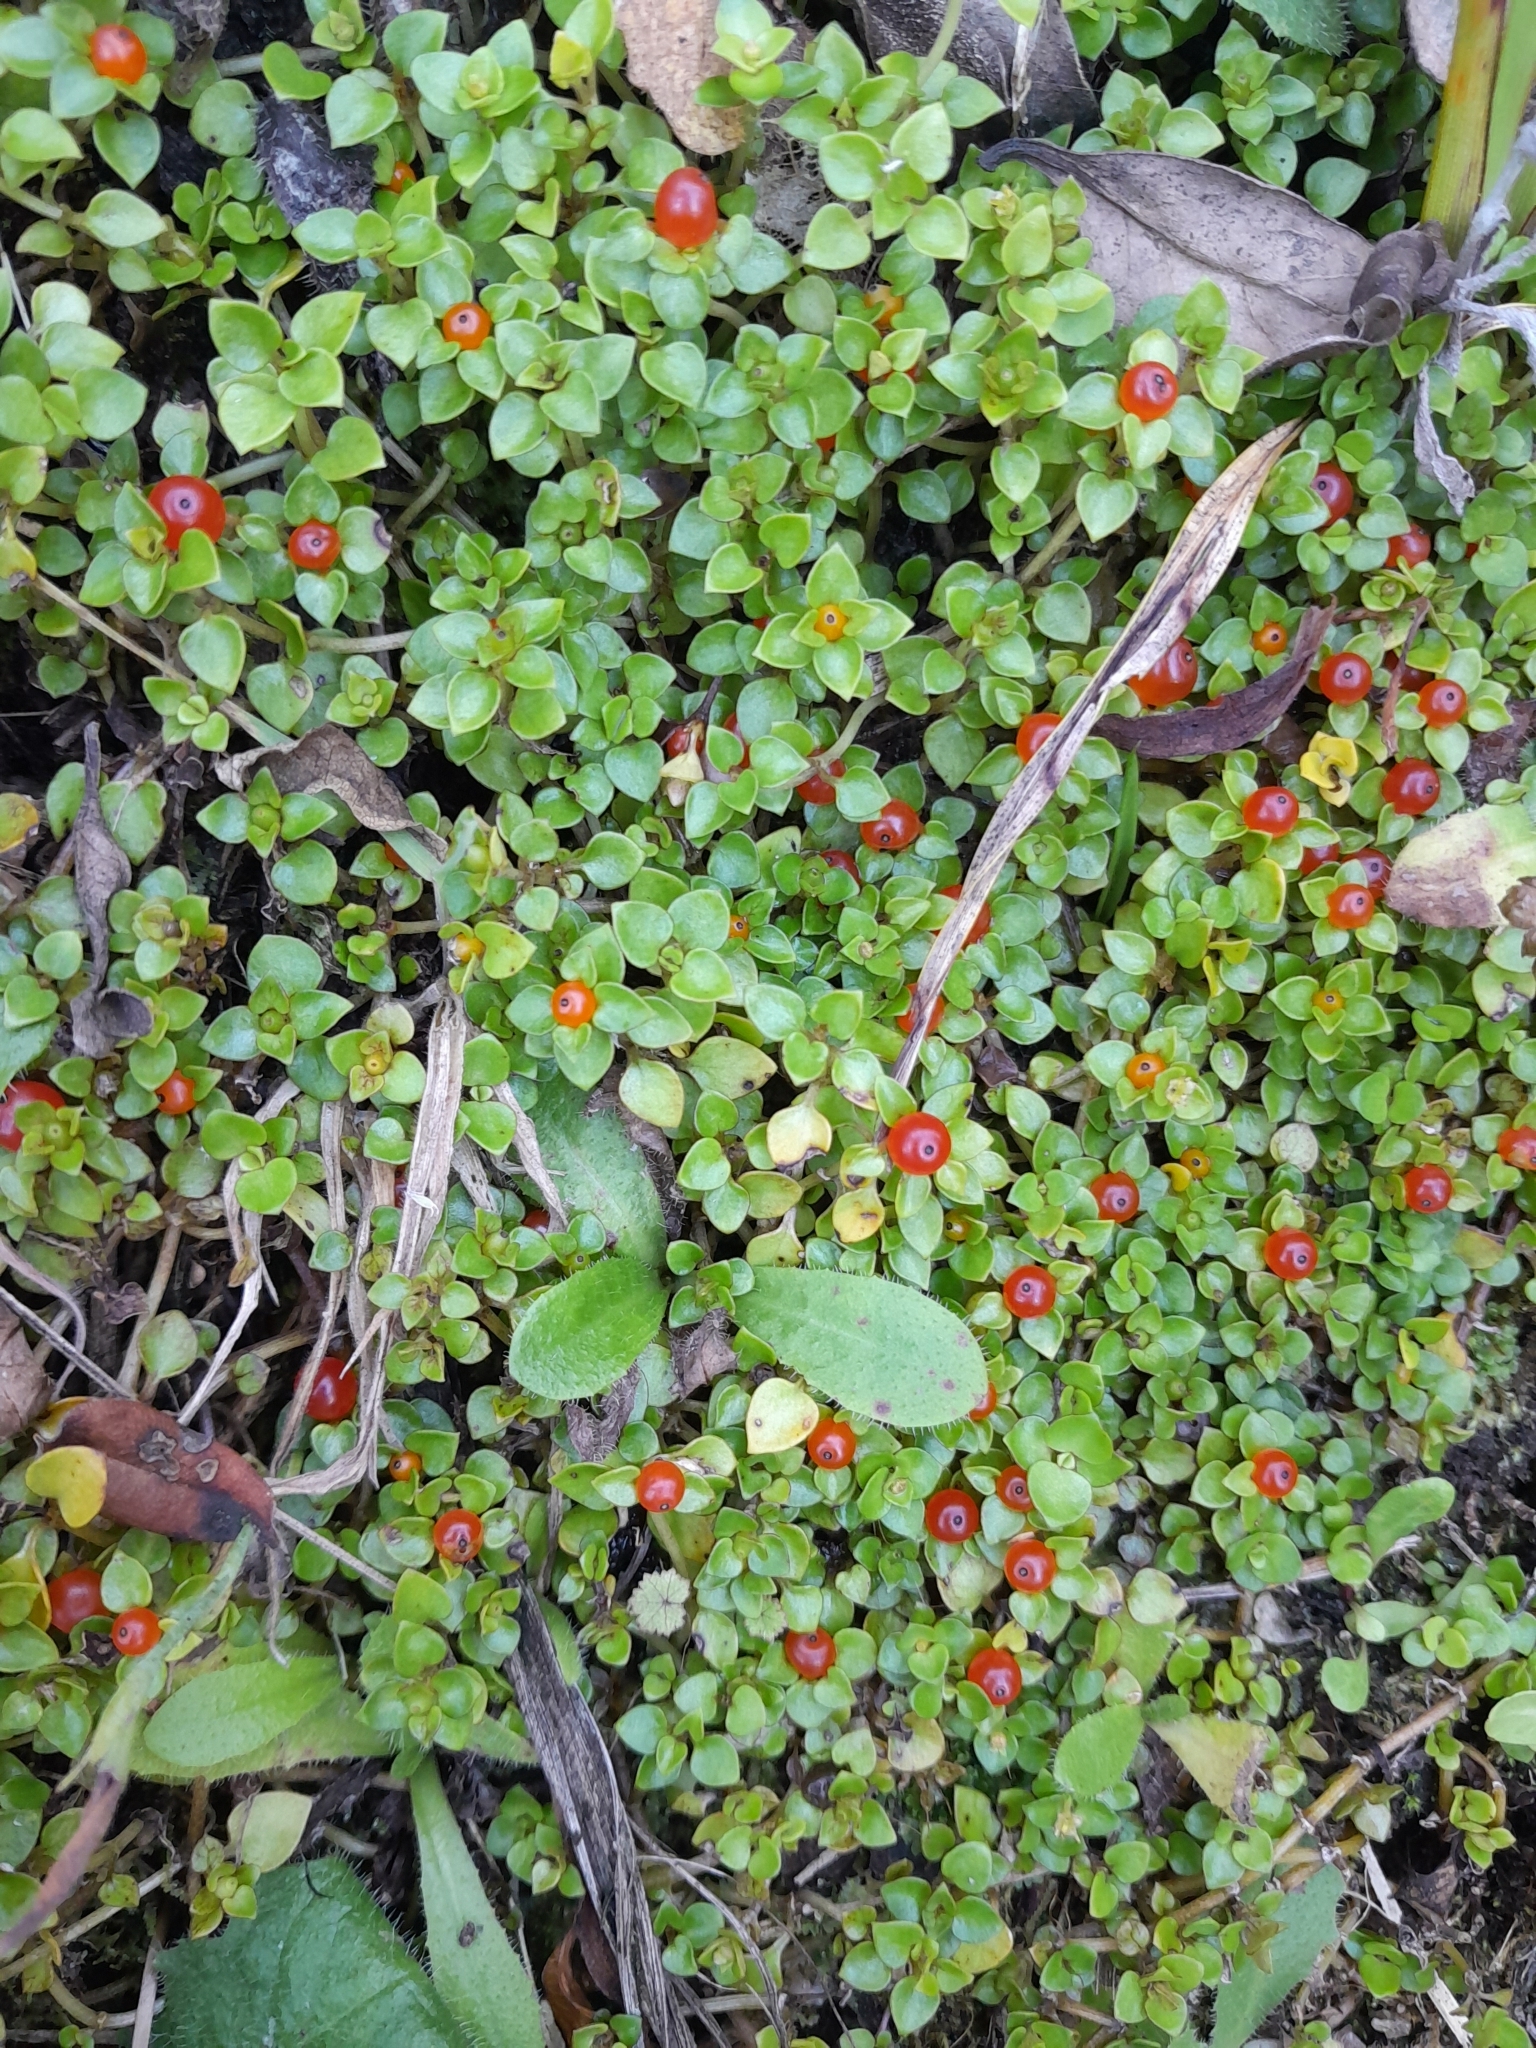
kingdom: Plantae
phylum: Tracheophyta
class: Magnoliopsida
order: Gentianales
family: Rubiaceae
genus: Nertera
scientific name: Nertera granadensis
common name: Beadplant
